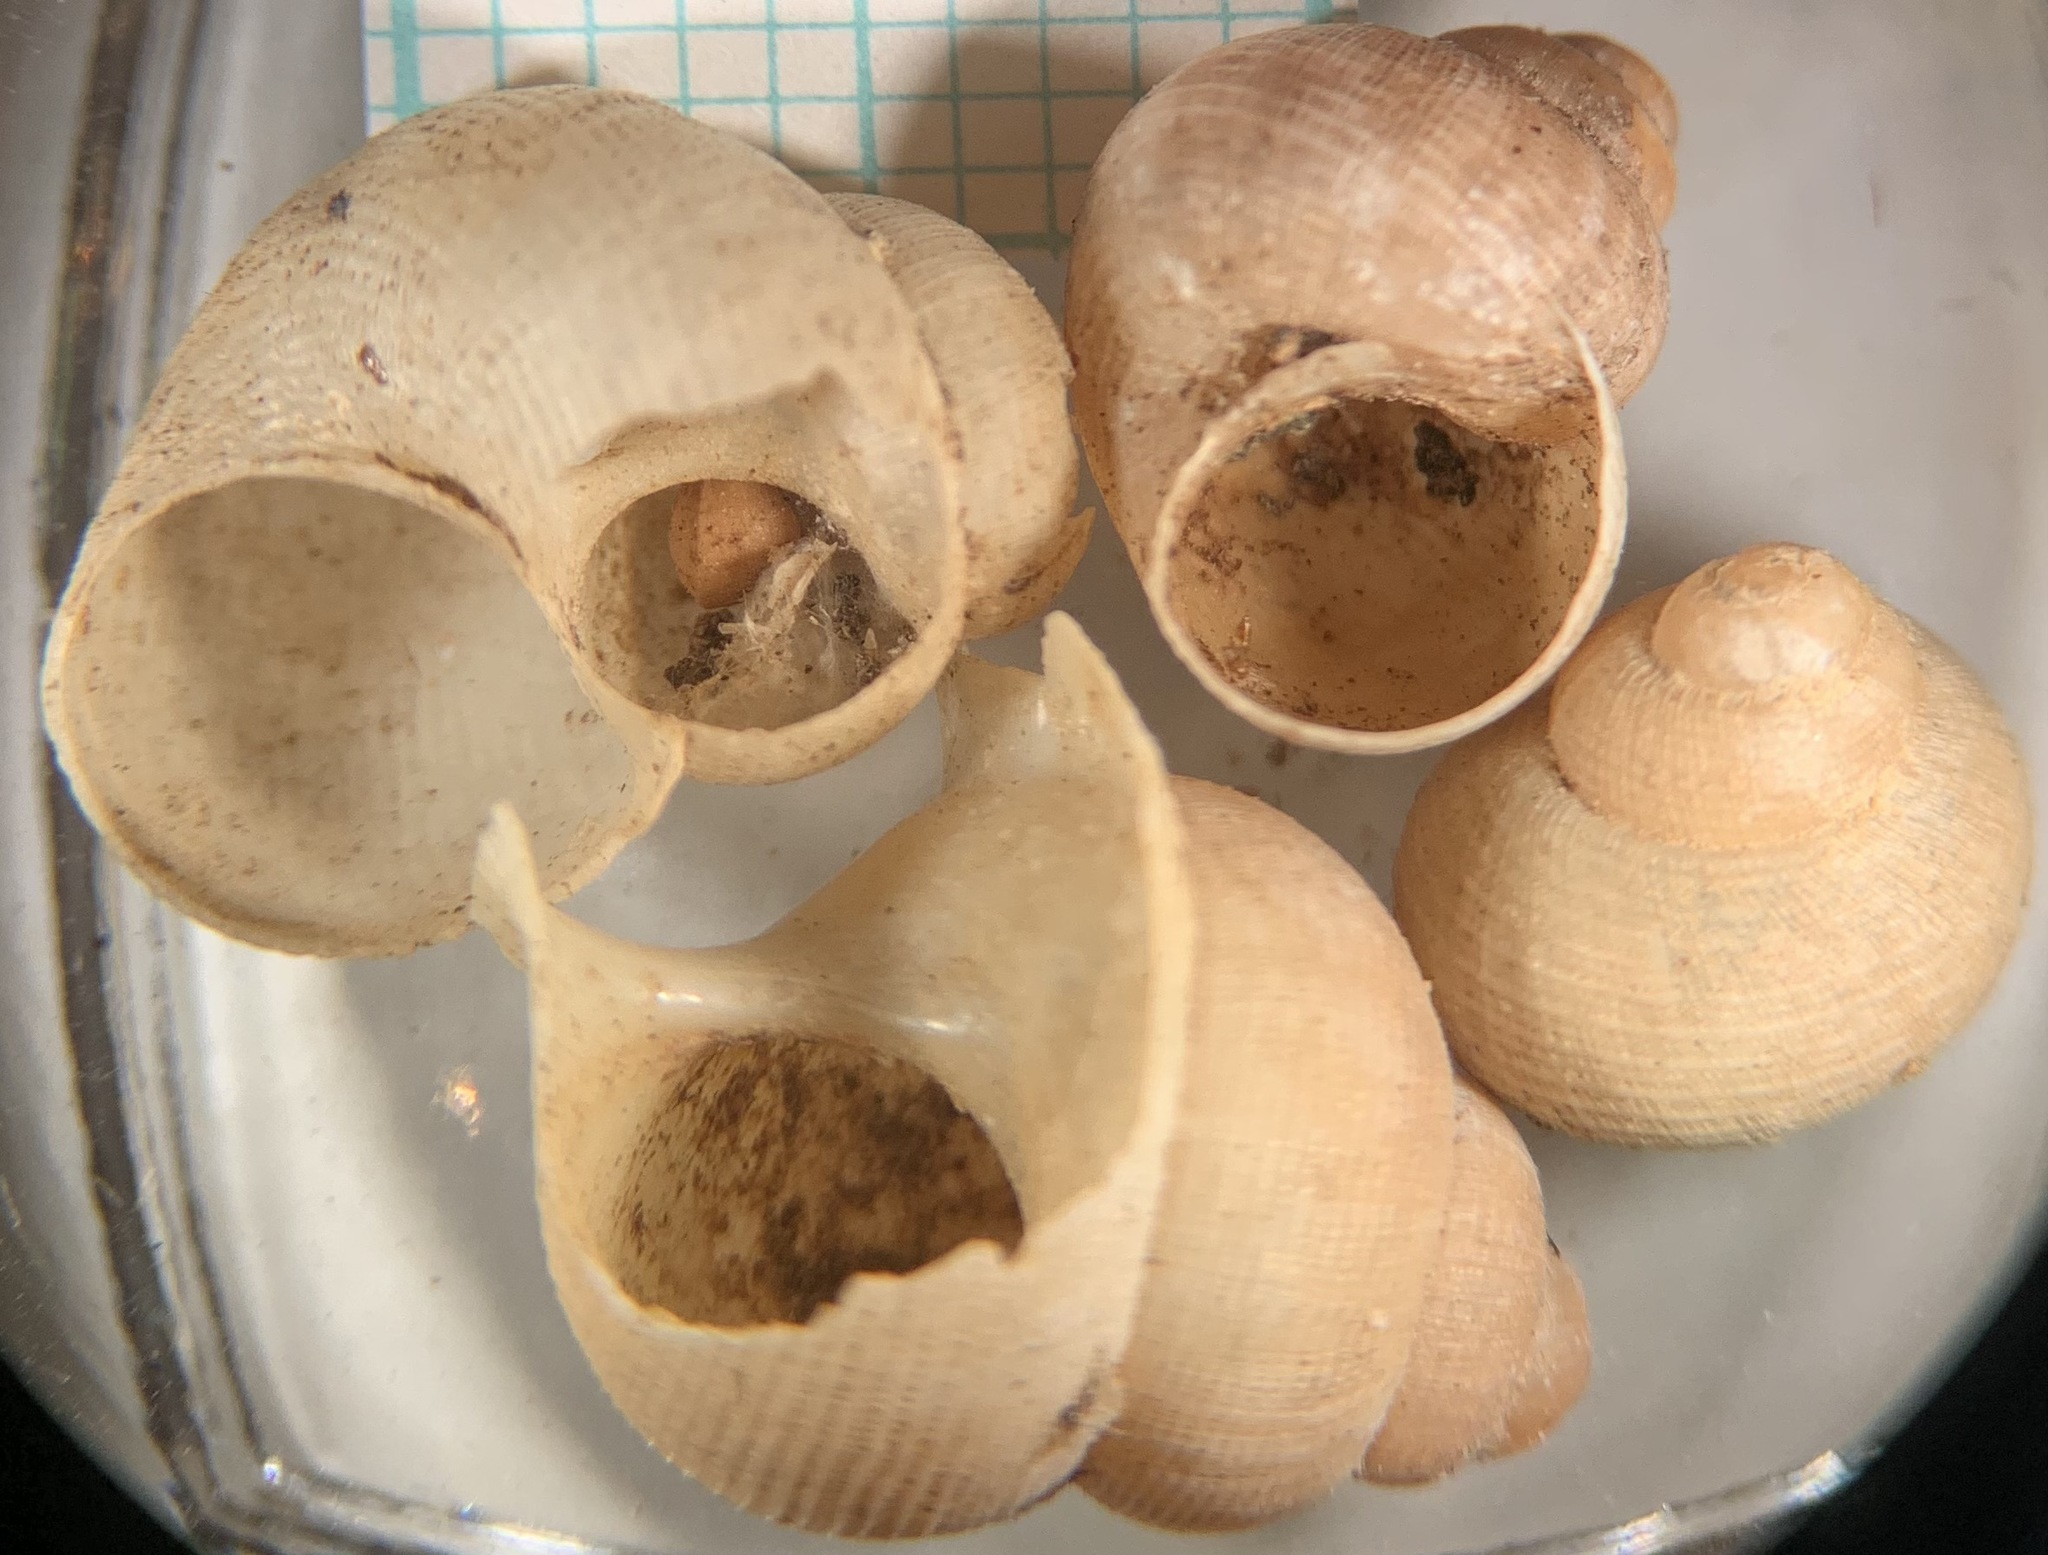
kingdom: Animalia
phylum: Mollusca
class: Gastropoda
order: Littorinimorpha
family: Pomatiidae
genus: Pomatias
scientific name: Pomatias elegans
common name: Red-mouthed snail
